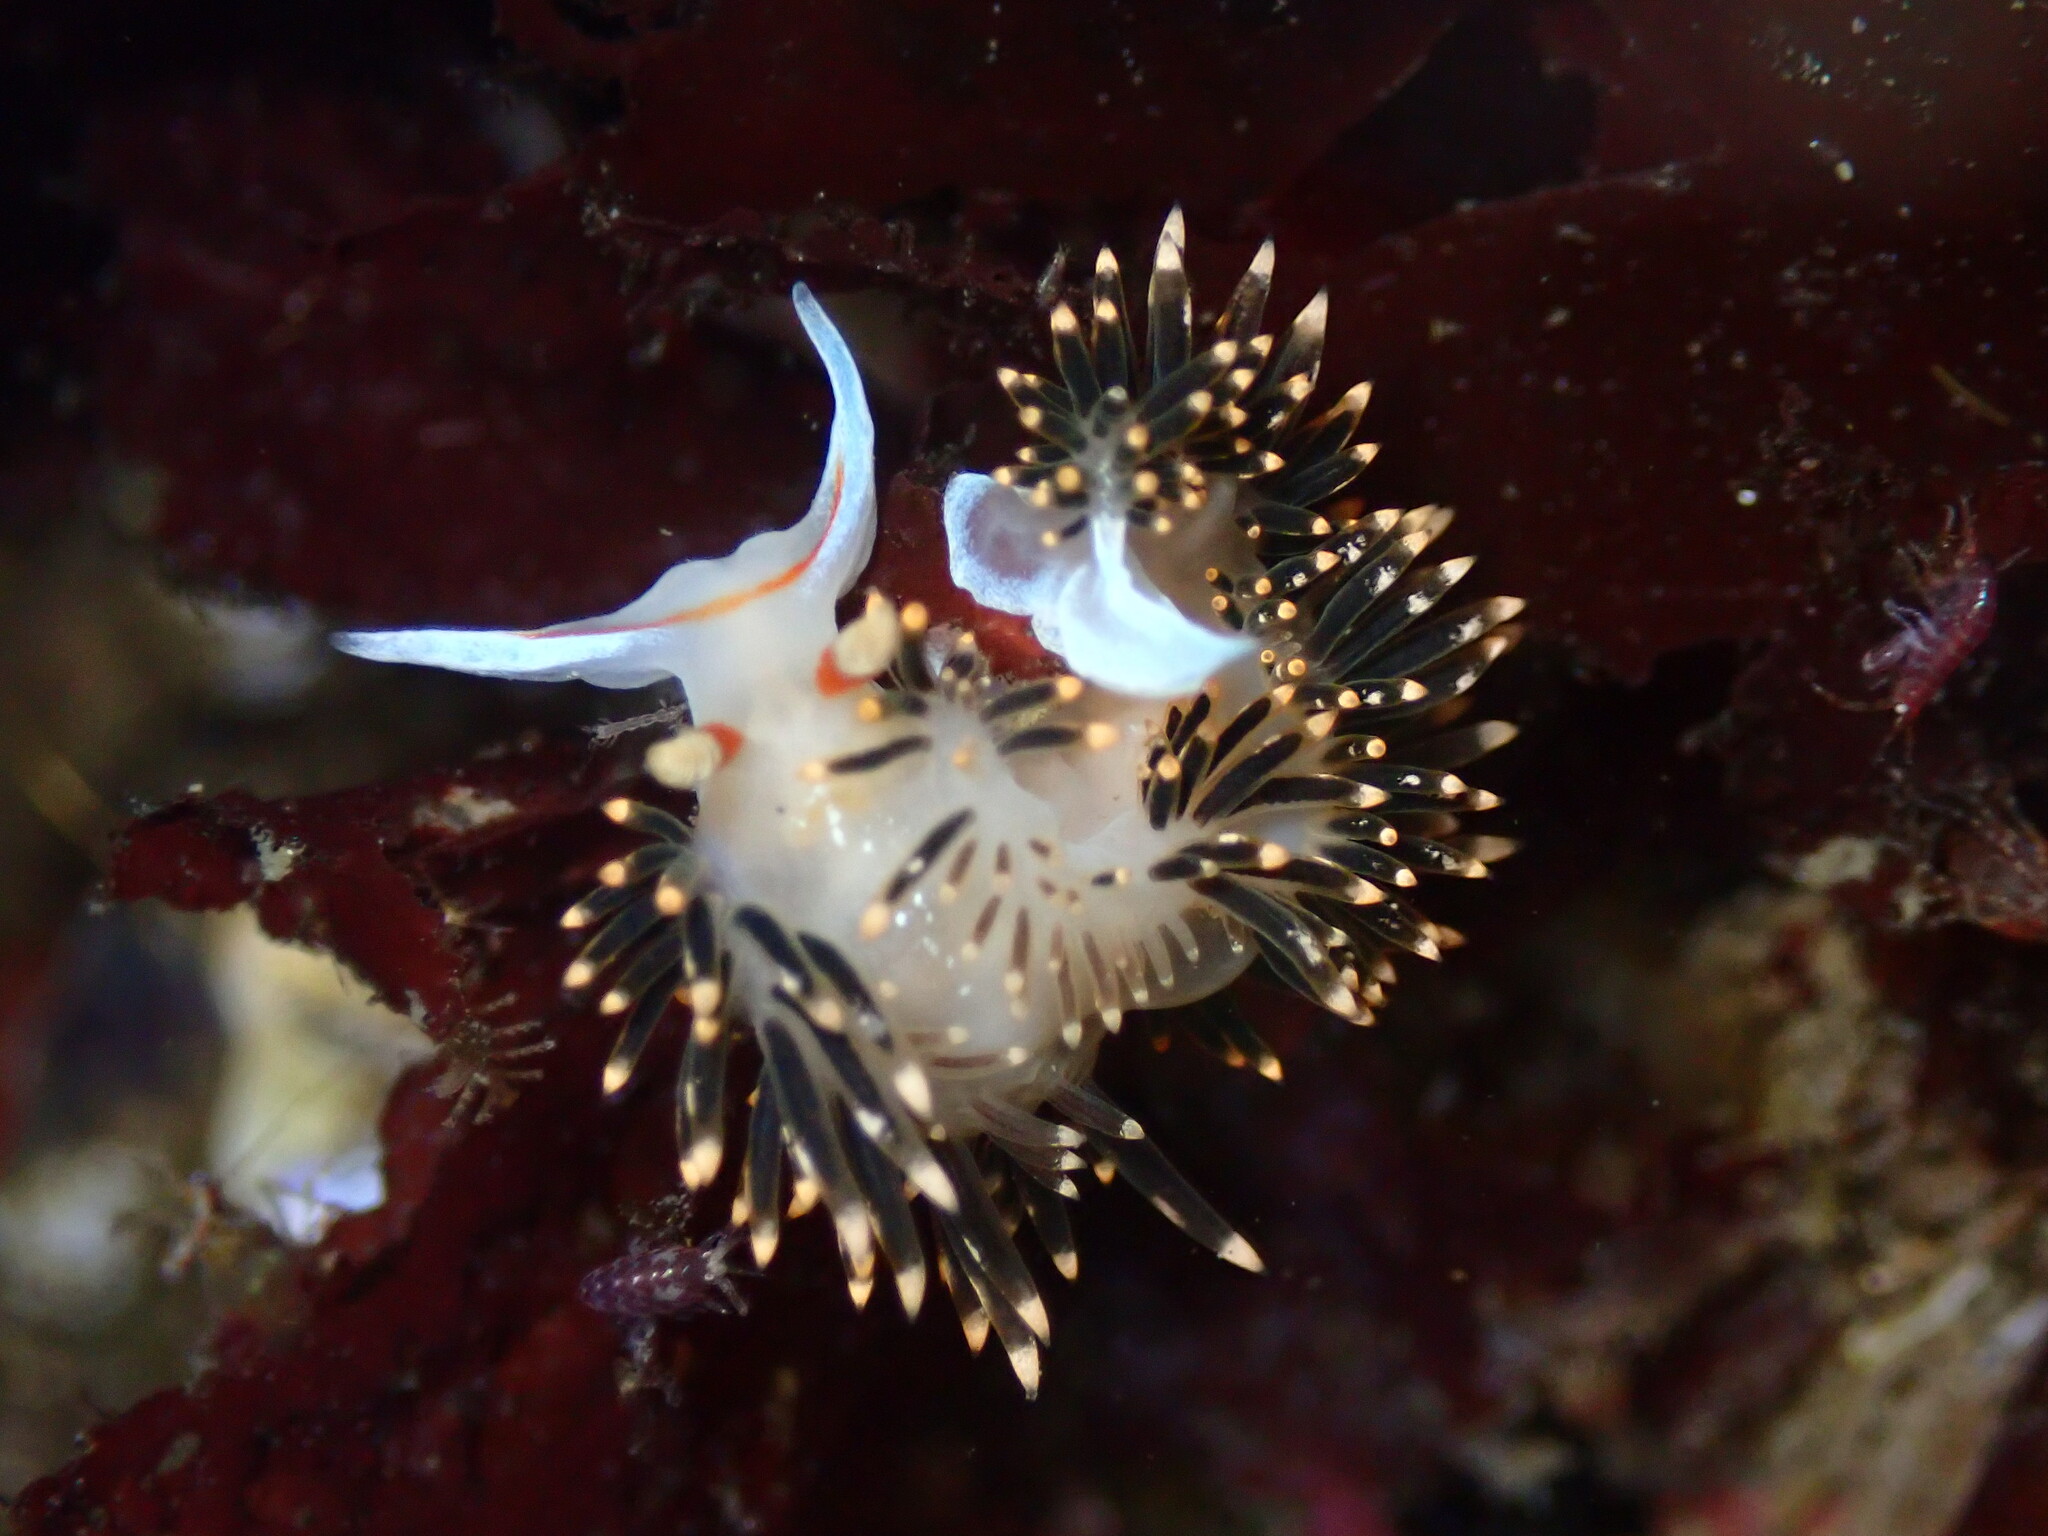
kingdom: Animalia
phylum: Mollusca
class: Gastropoda
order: Nudibranchia
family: Facelinidae
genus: Phidiana
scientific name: Phidiana hiltoni
